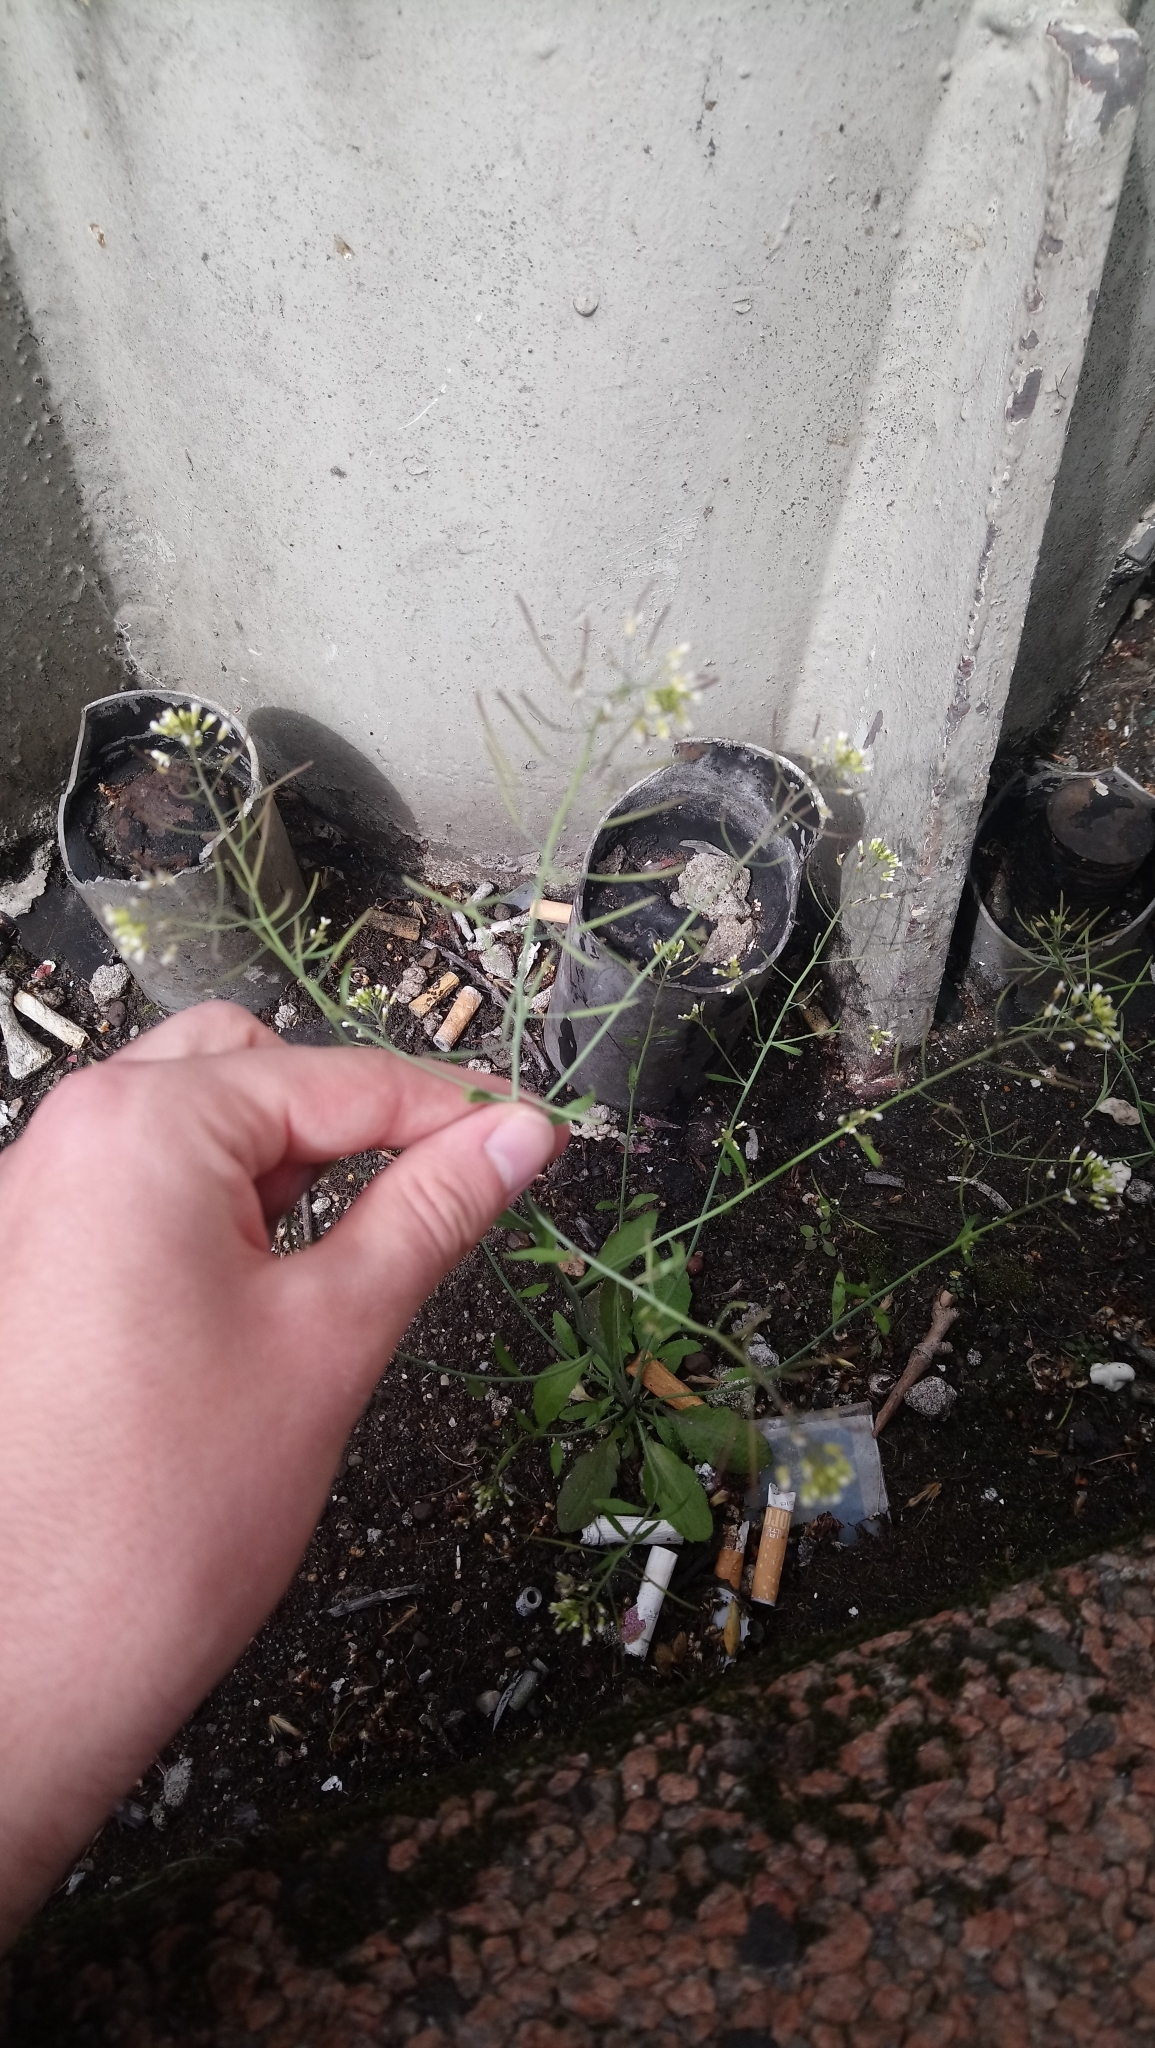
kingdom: Plantae
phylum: Tracheophyta
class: Magnoliopsida
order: Brassicales
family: Brassicaceae
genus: Arabidopsis
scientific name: Arabidopsis thaliana
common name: Thale cress
